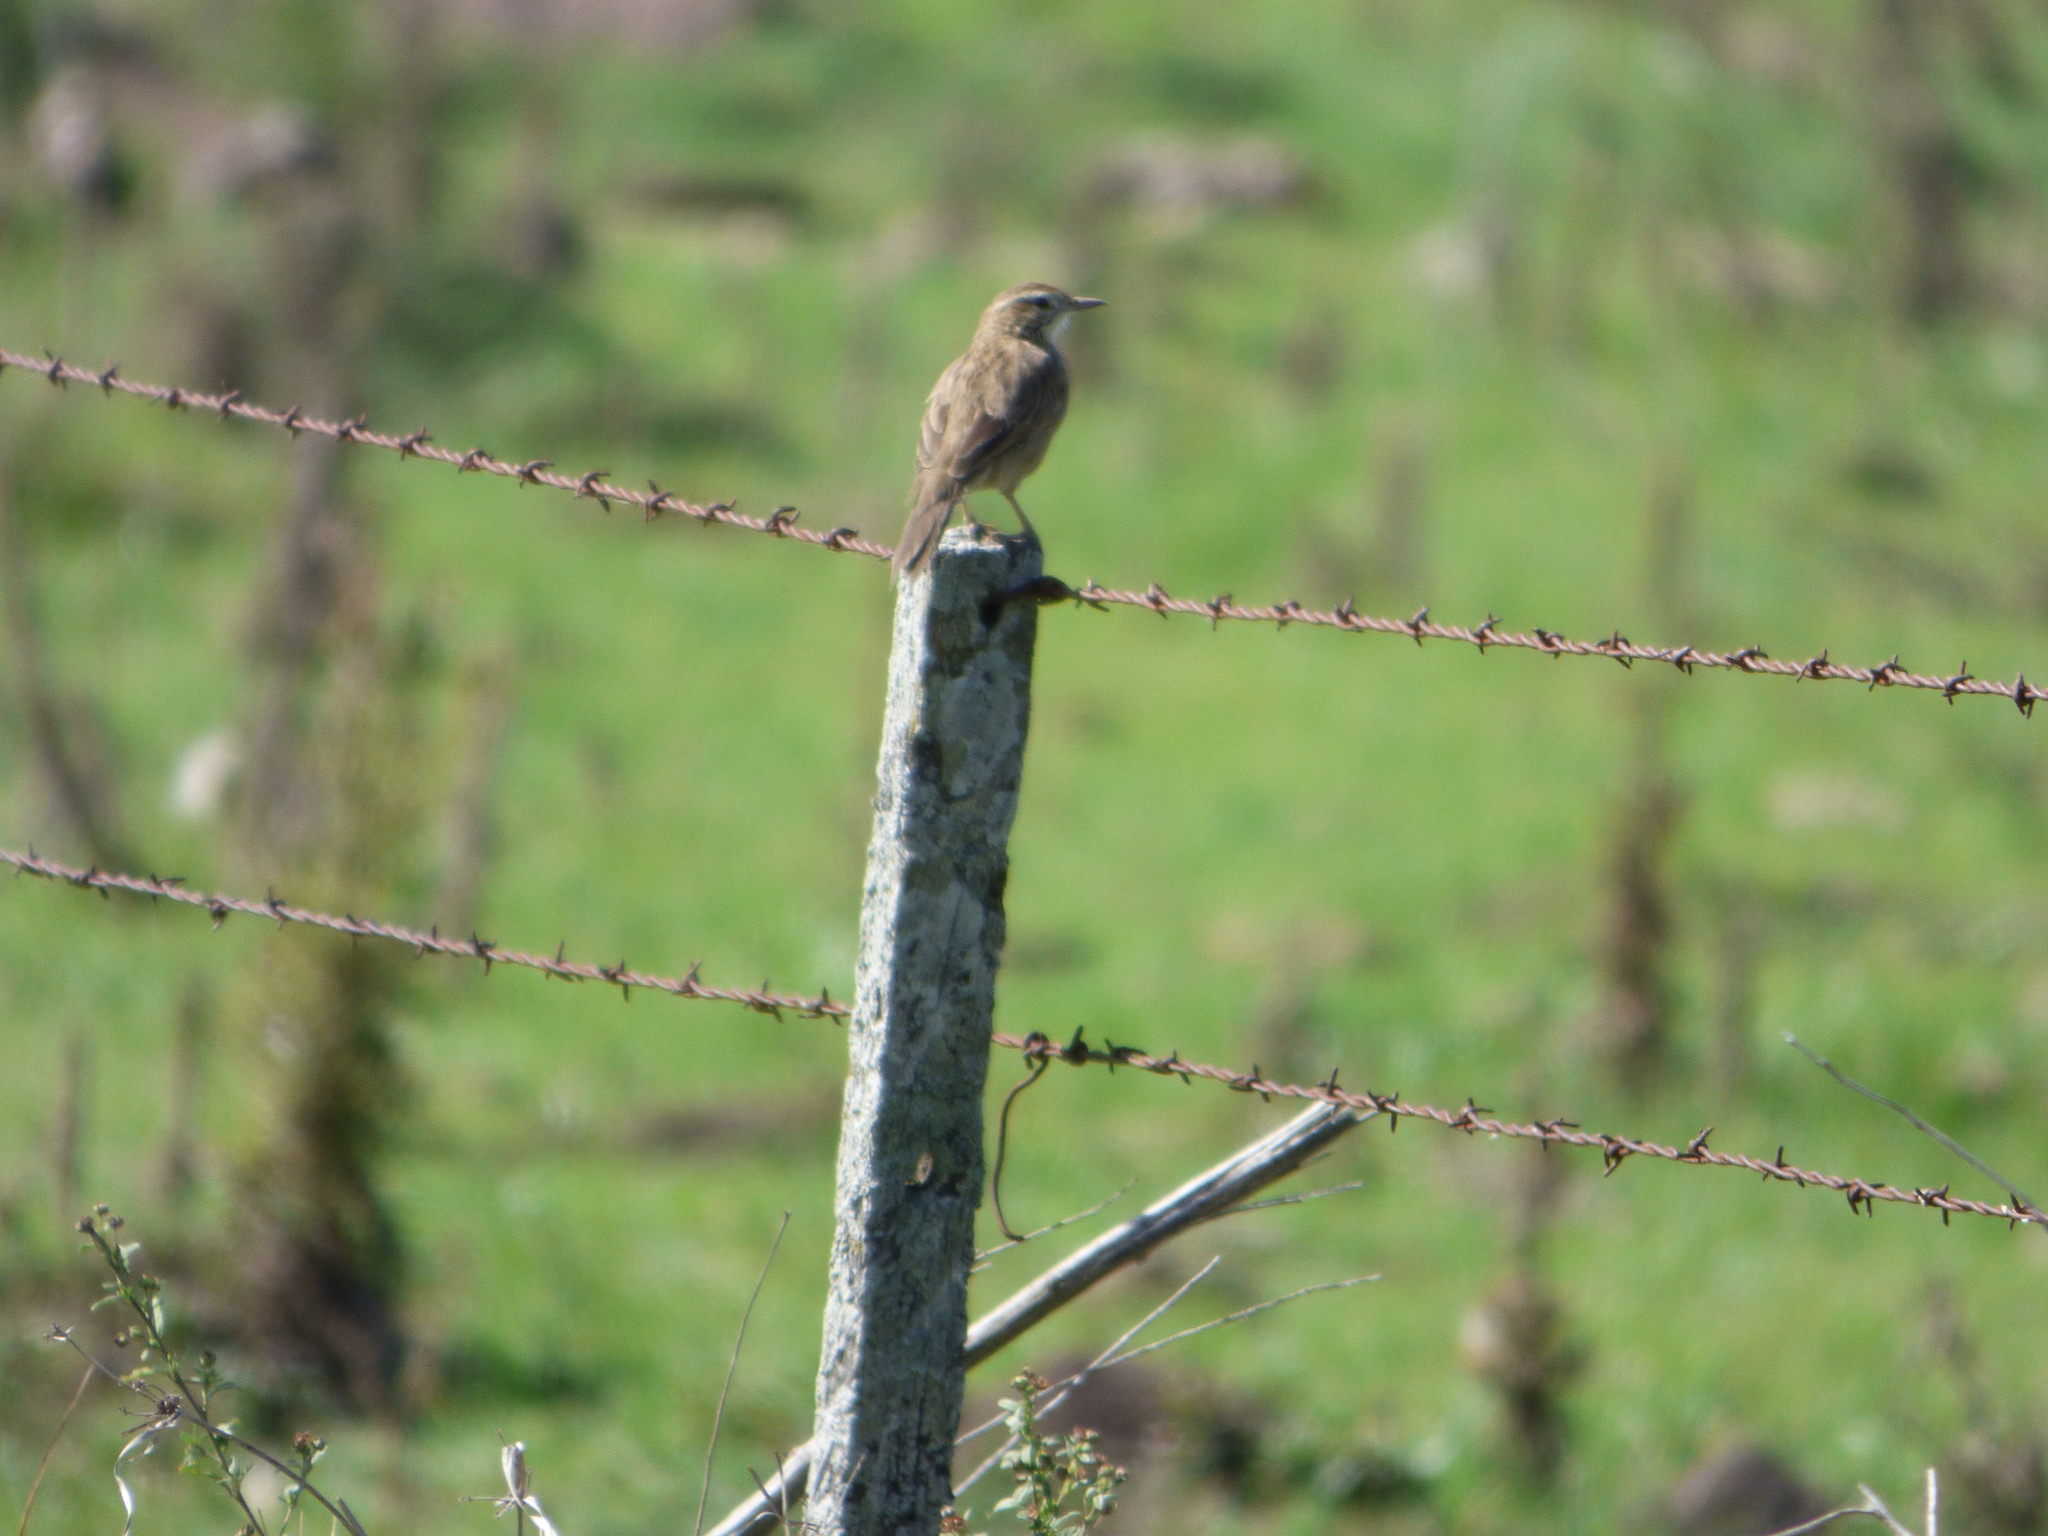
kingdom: Animalia
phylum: Chordata
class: Aves
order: Passeriformes
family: Furnariidae
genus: Anumbius
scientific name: Anumbius annumbi
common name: Firewood-gatherer
